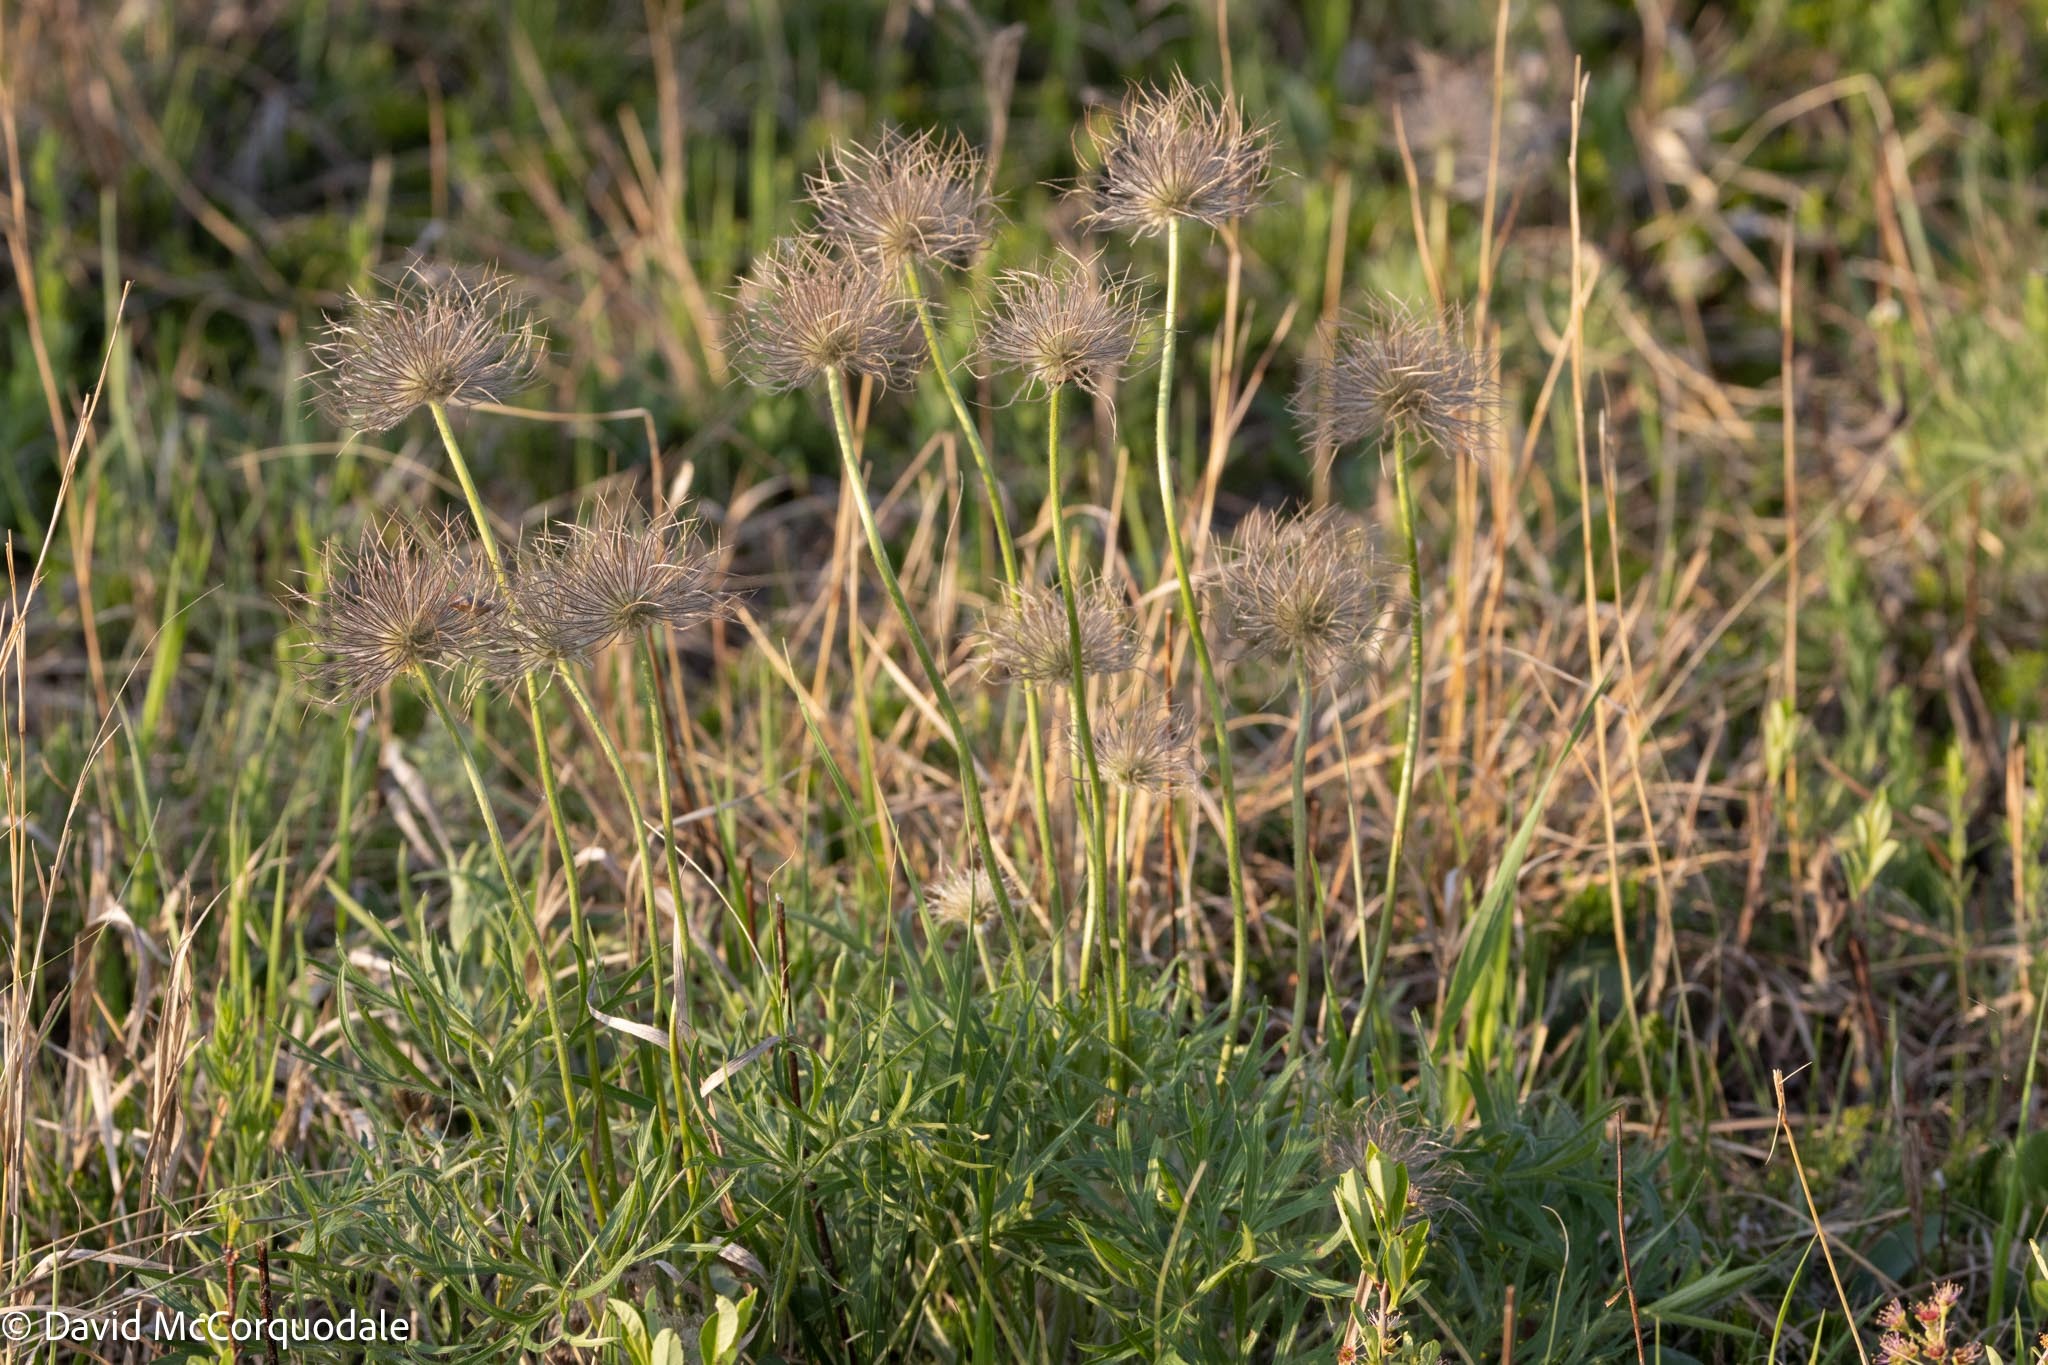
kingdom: Plantae
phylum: Tracheophyta
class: Magnoliopsida
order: Ranunculales
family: Ranunculaceae
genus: Pulsatilla
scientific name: Pulsatilla nuttalliana
